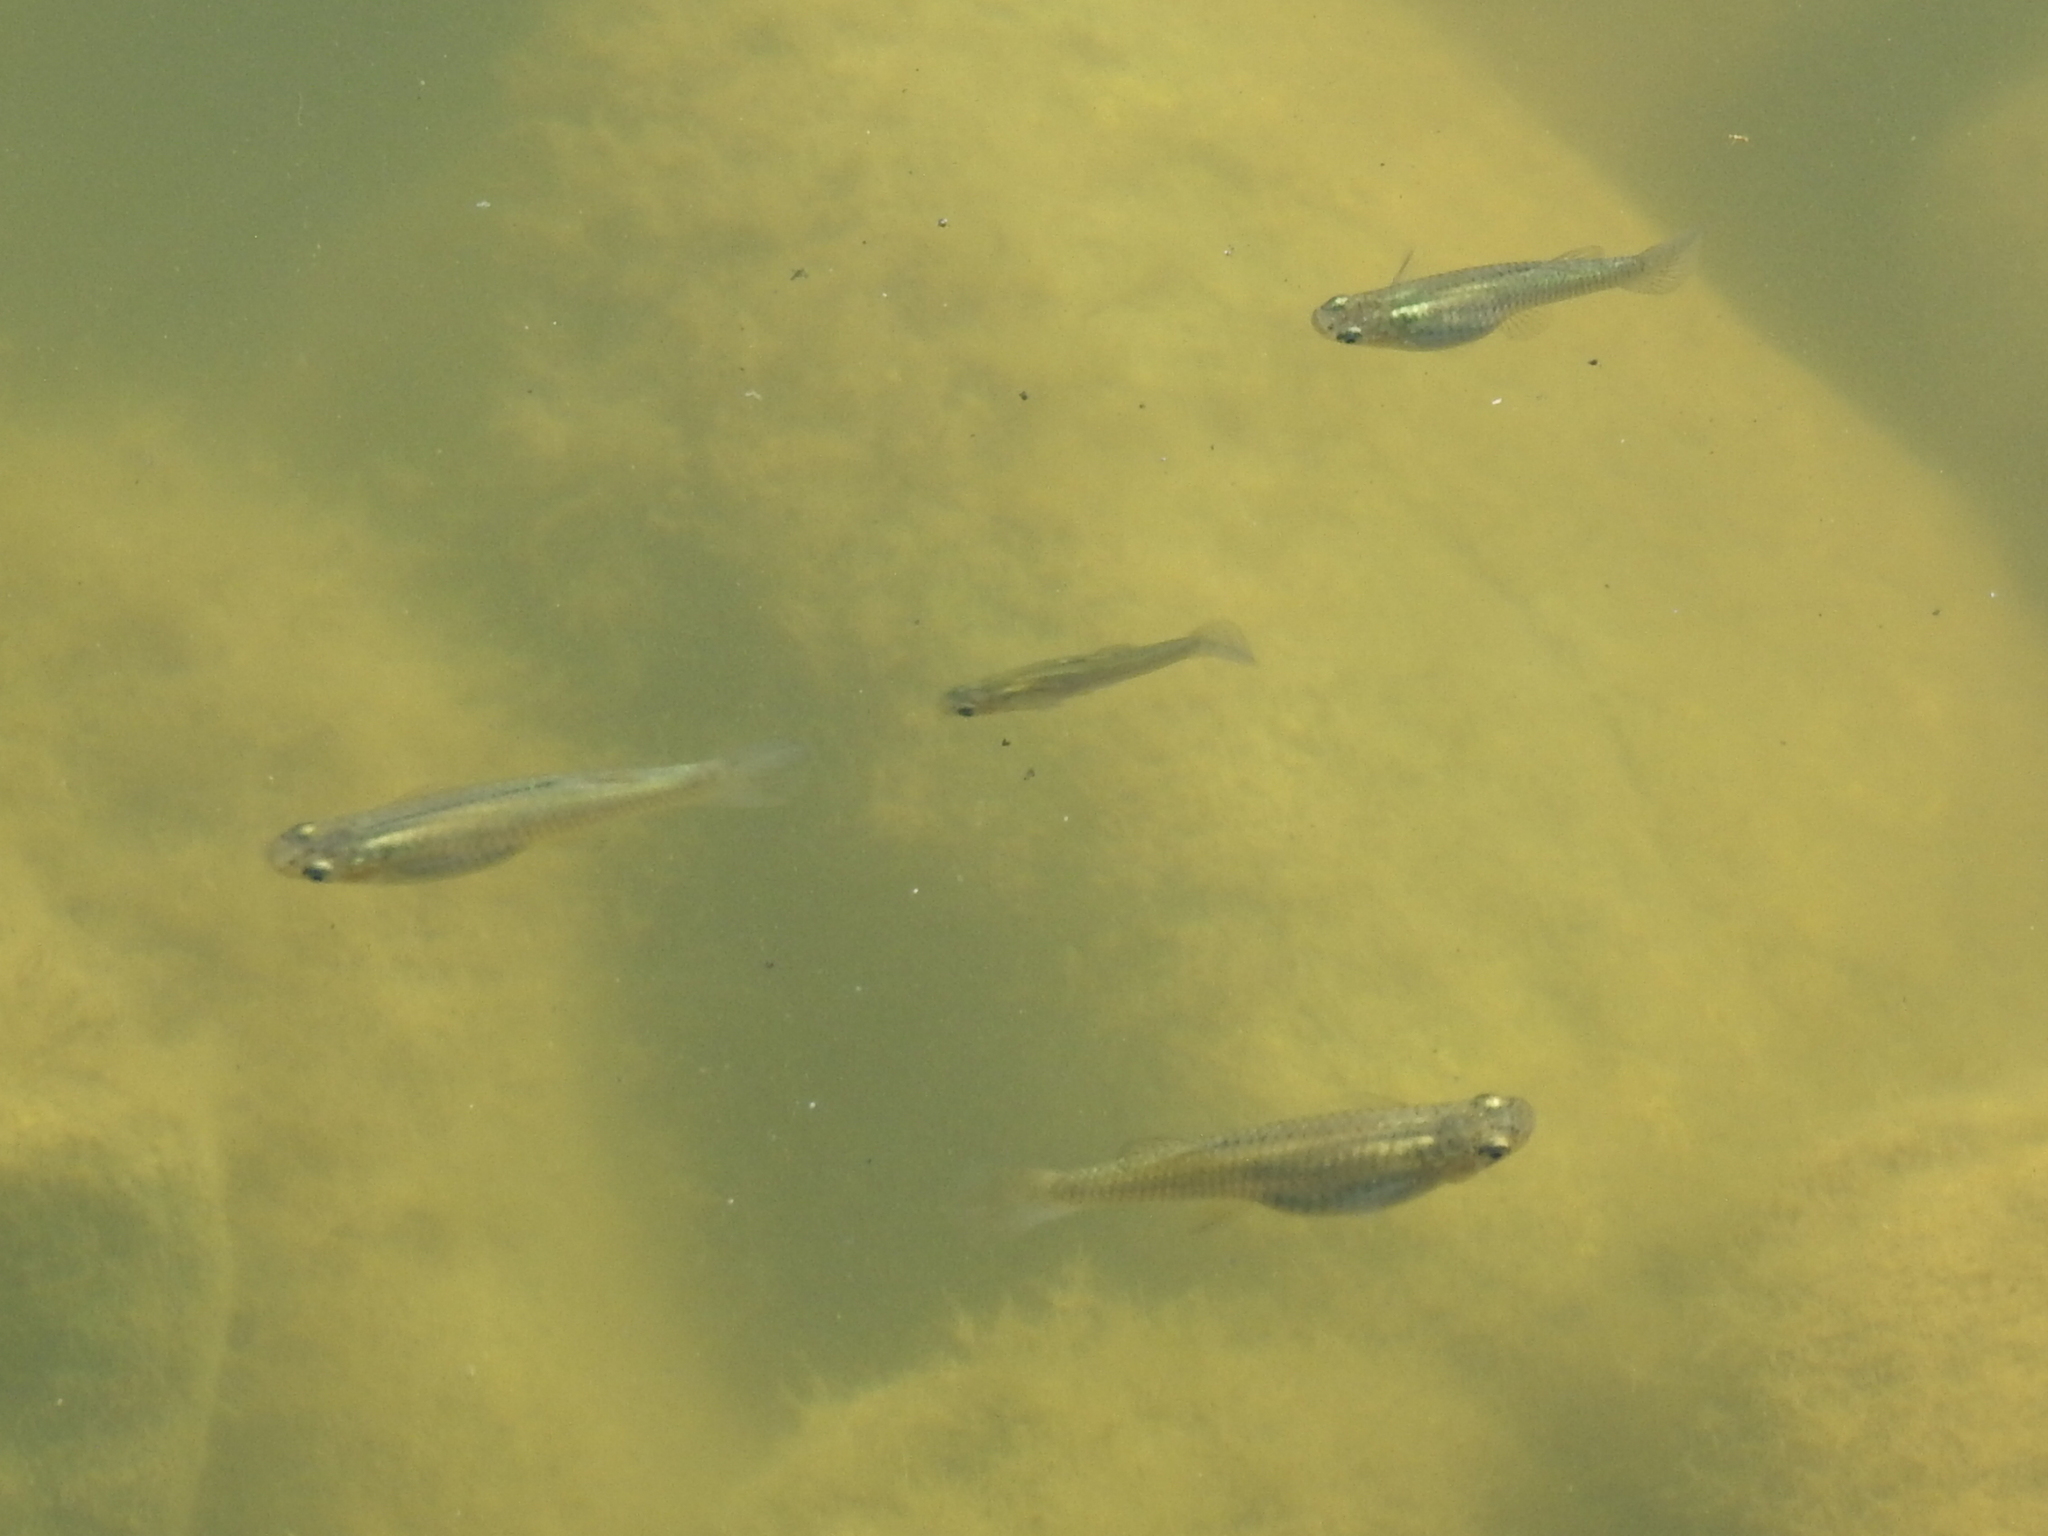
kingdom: Animalia
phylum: Chordata
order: Cyprinodontiformes
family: Poeciliidae
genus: Gambusia
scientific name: Gambusia affinis
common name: Mosquitofish
